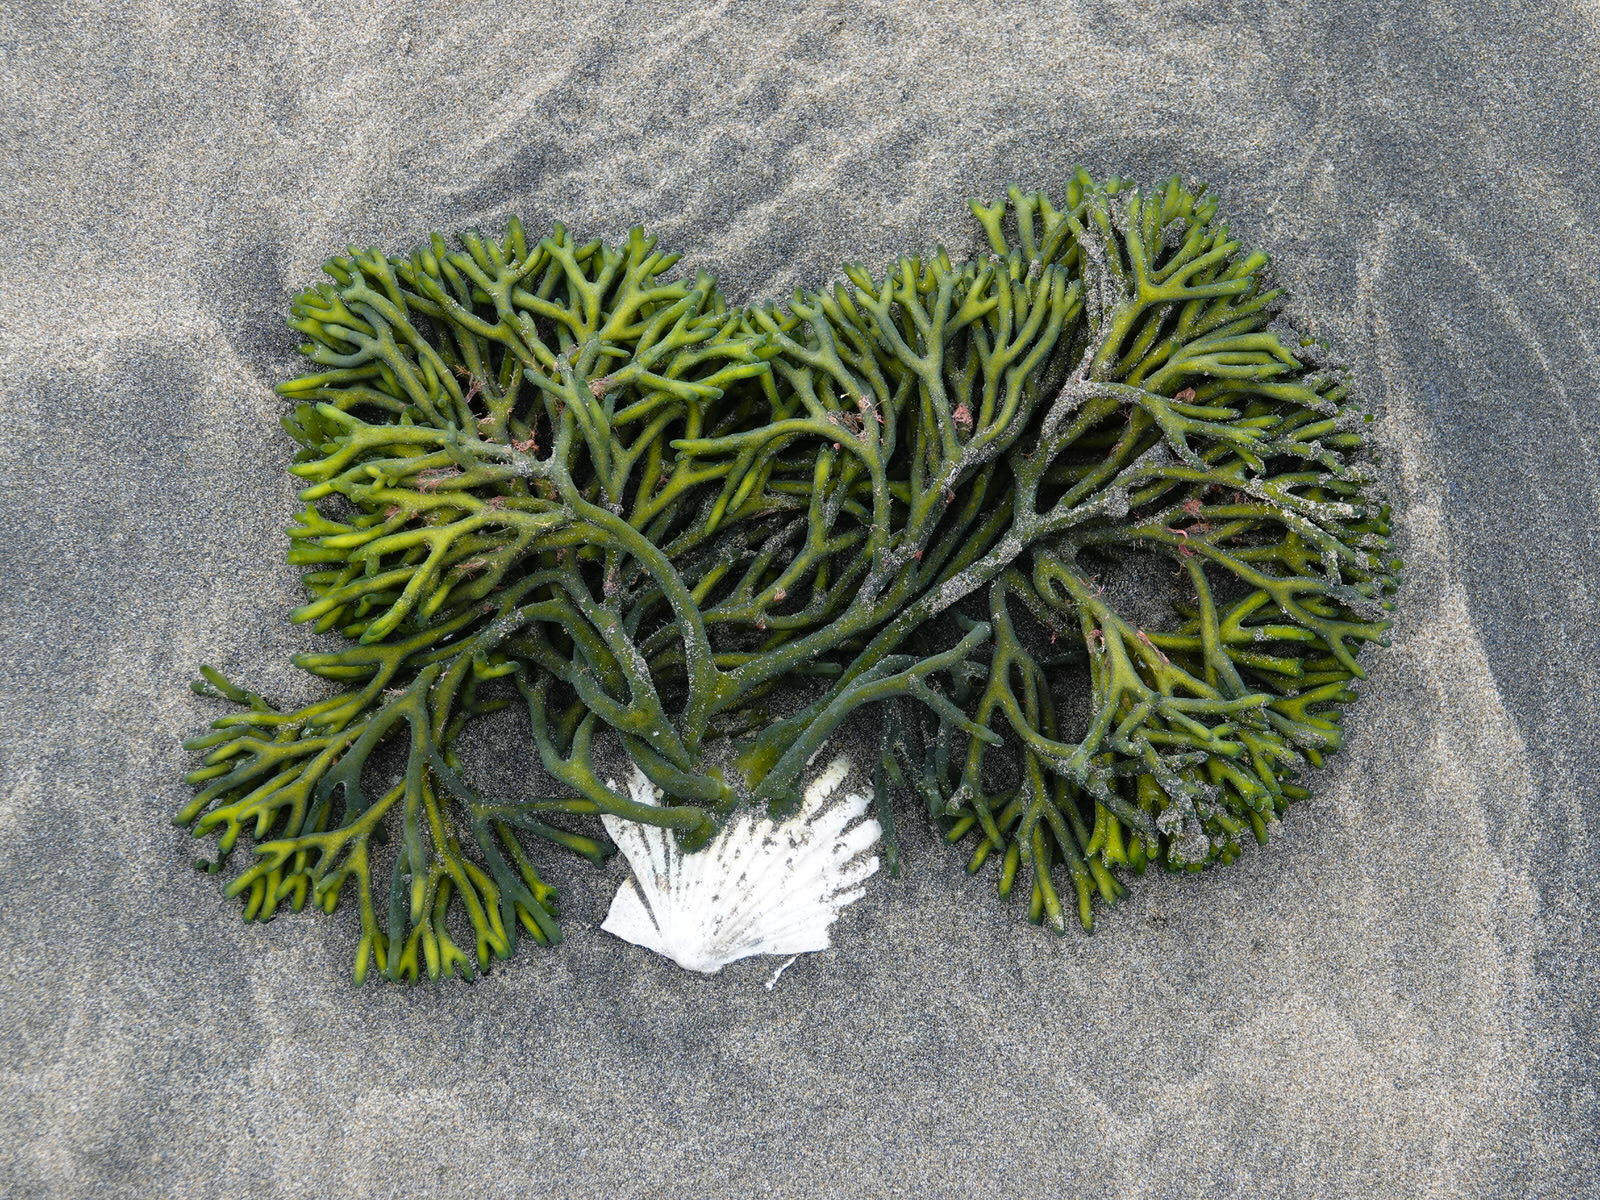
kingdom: Plantae
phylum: Chlorophyta
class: Ulvophyceae
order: Bryopsidales
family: Codiaceae
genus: Codium
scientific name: Codium fragile
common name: Dead man's fingers
